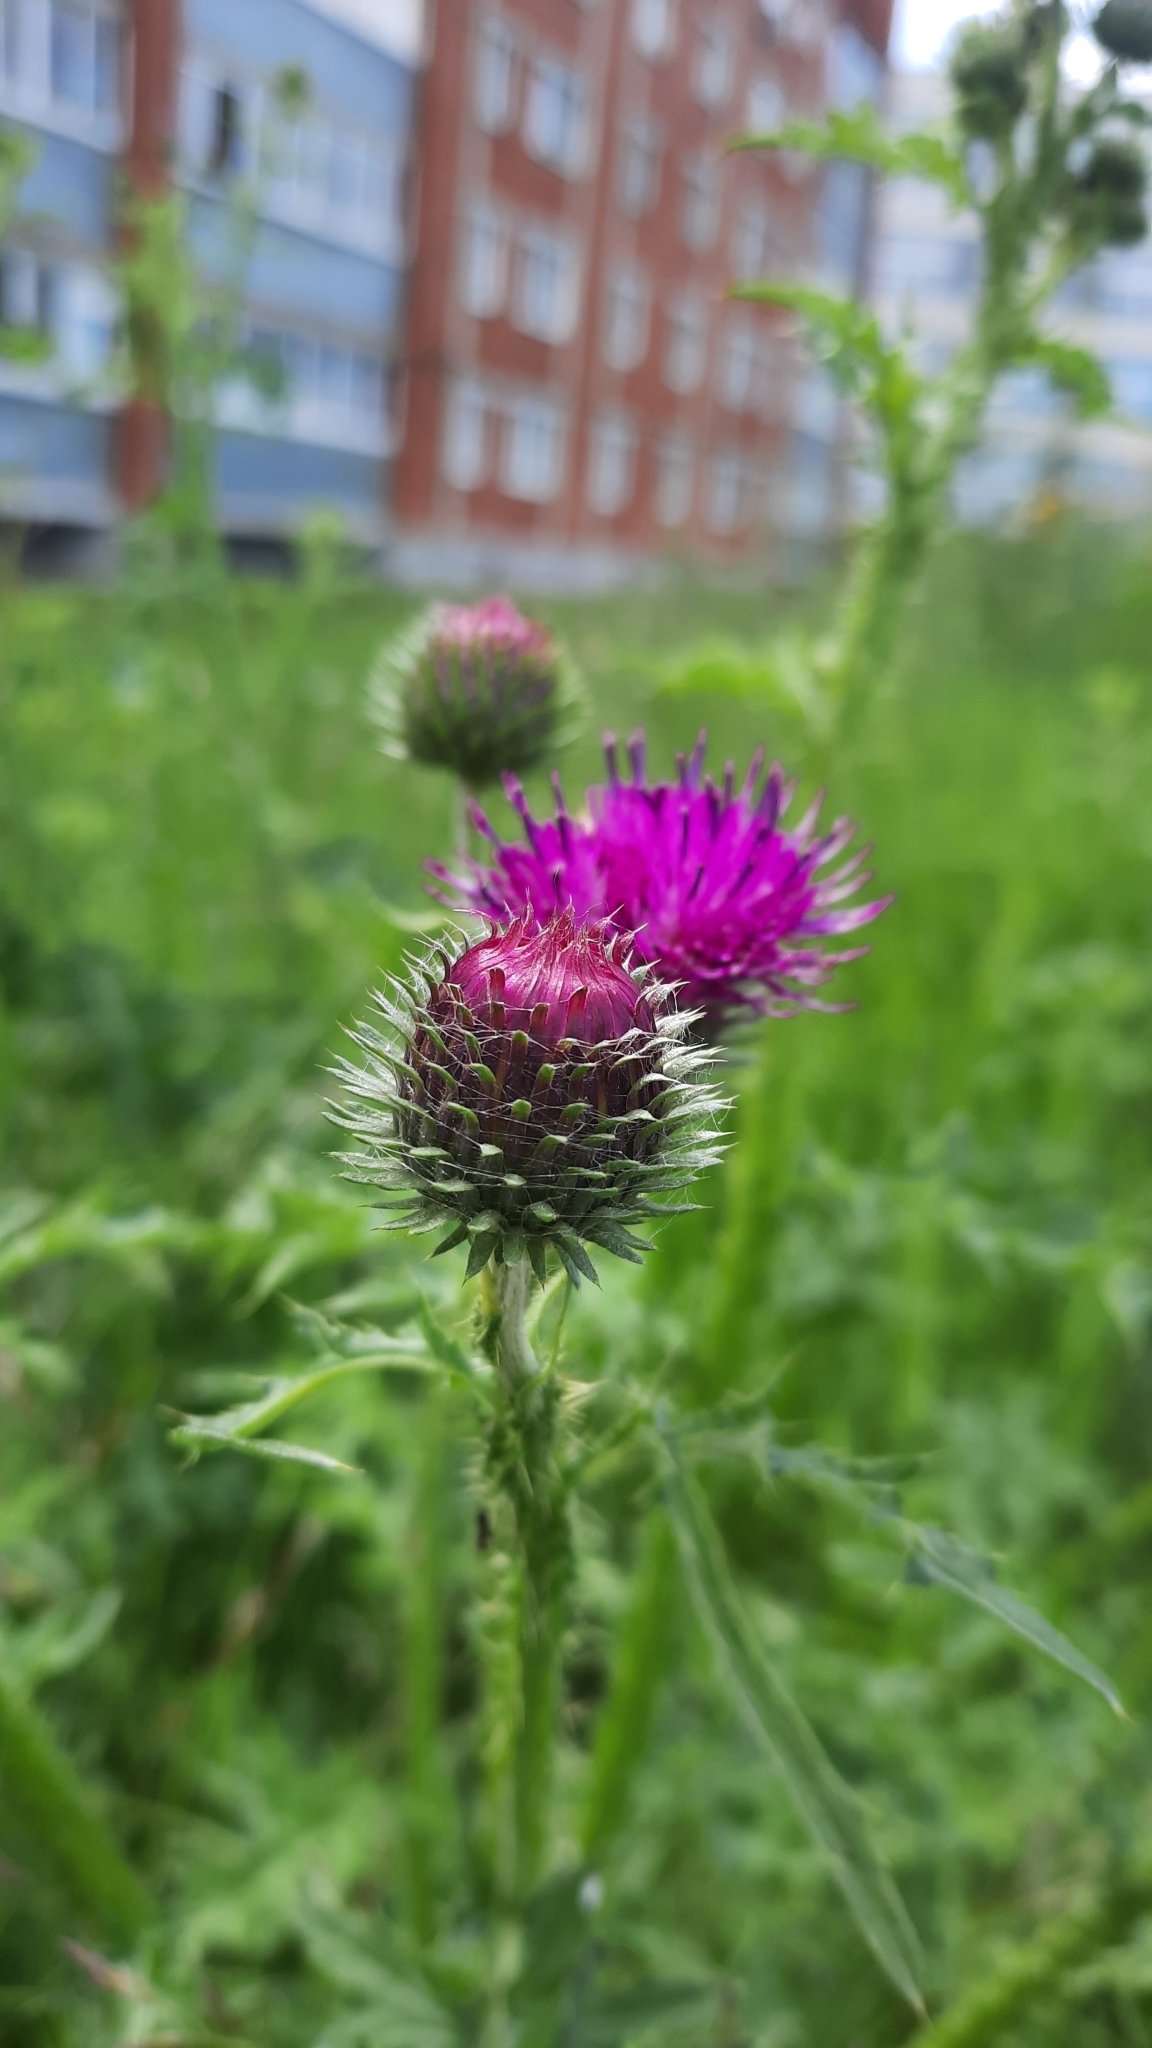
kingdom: Plantae
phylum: Tracheophyta
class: Magnoliopsida
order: Asterales
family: Asteraceae
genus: Carduus
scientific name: Carduus crispus
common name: Welted thistle
